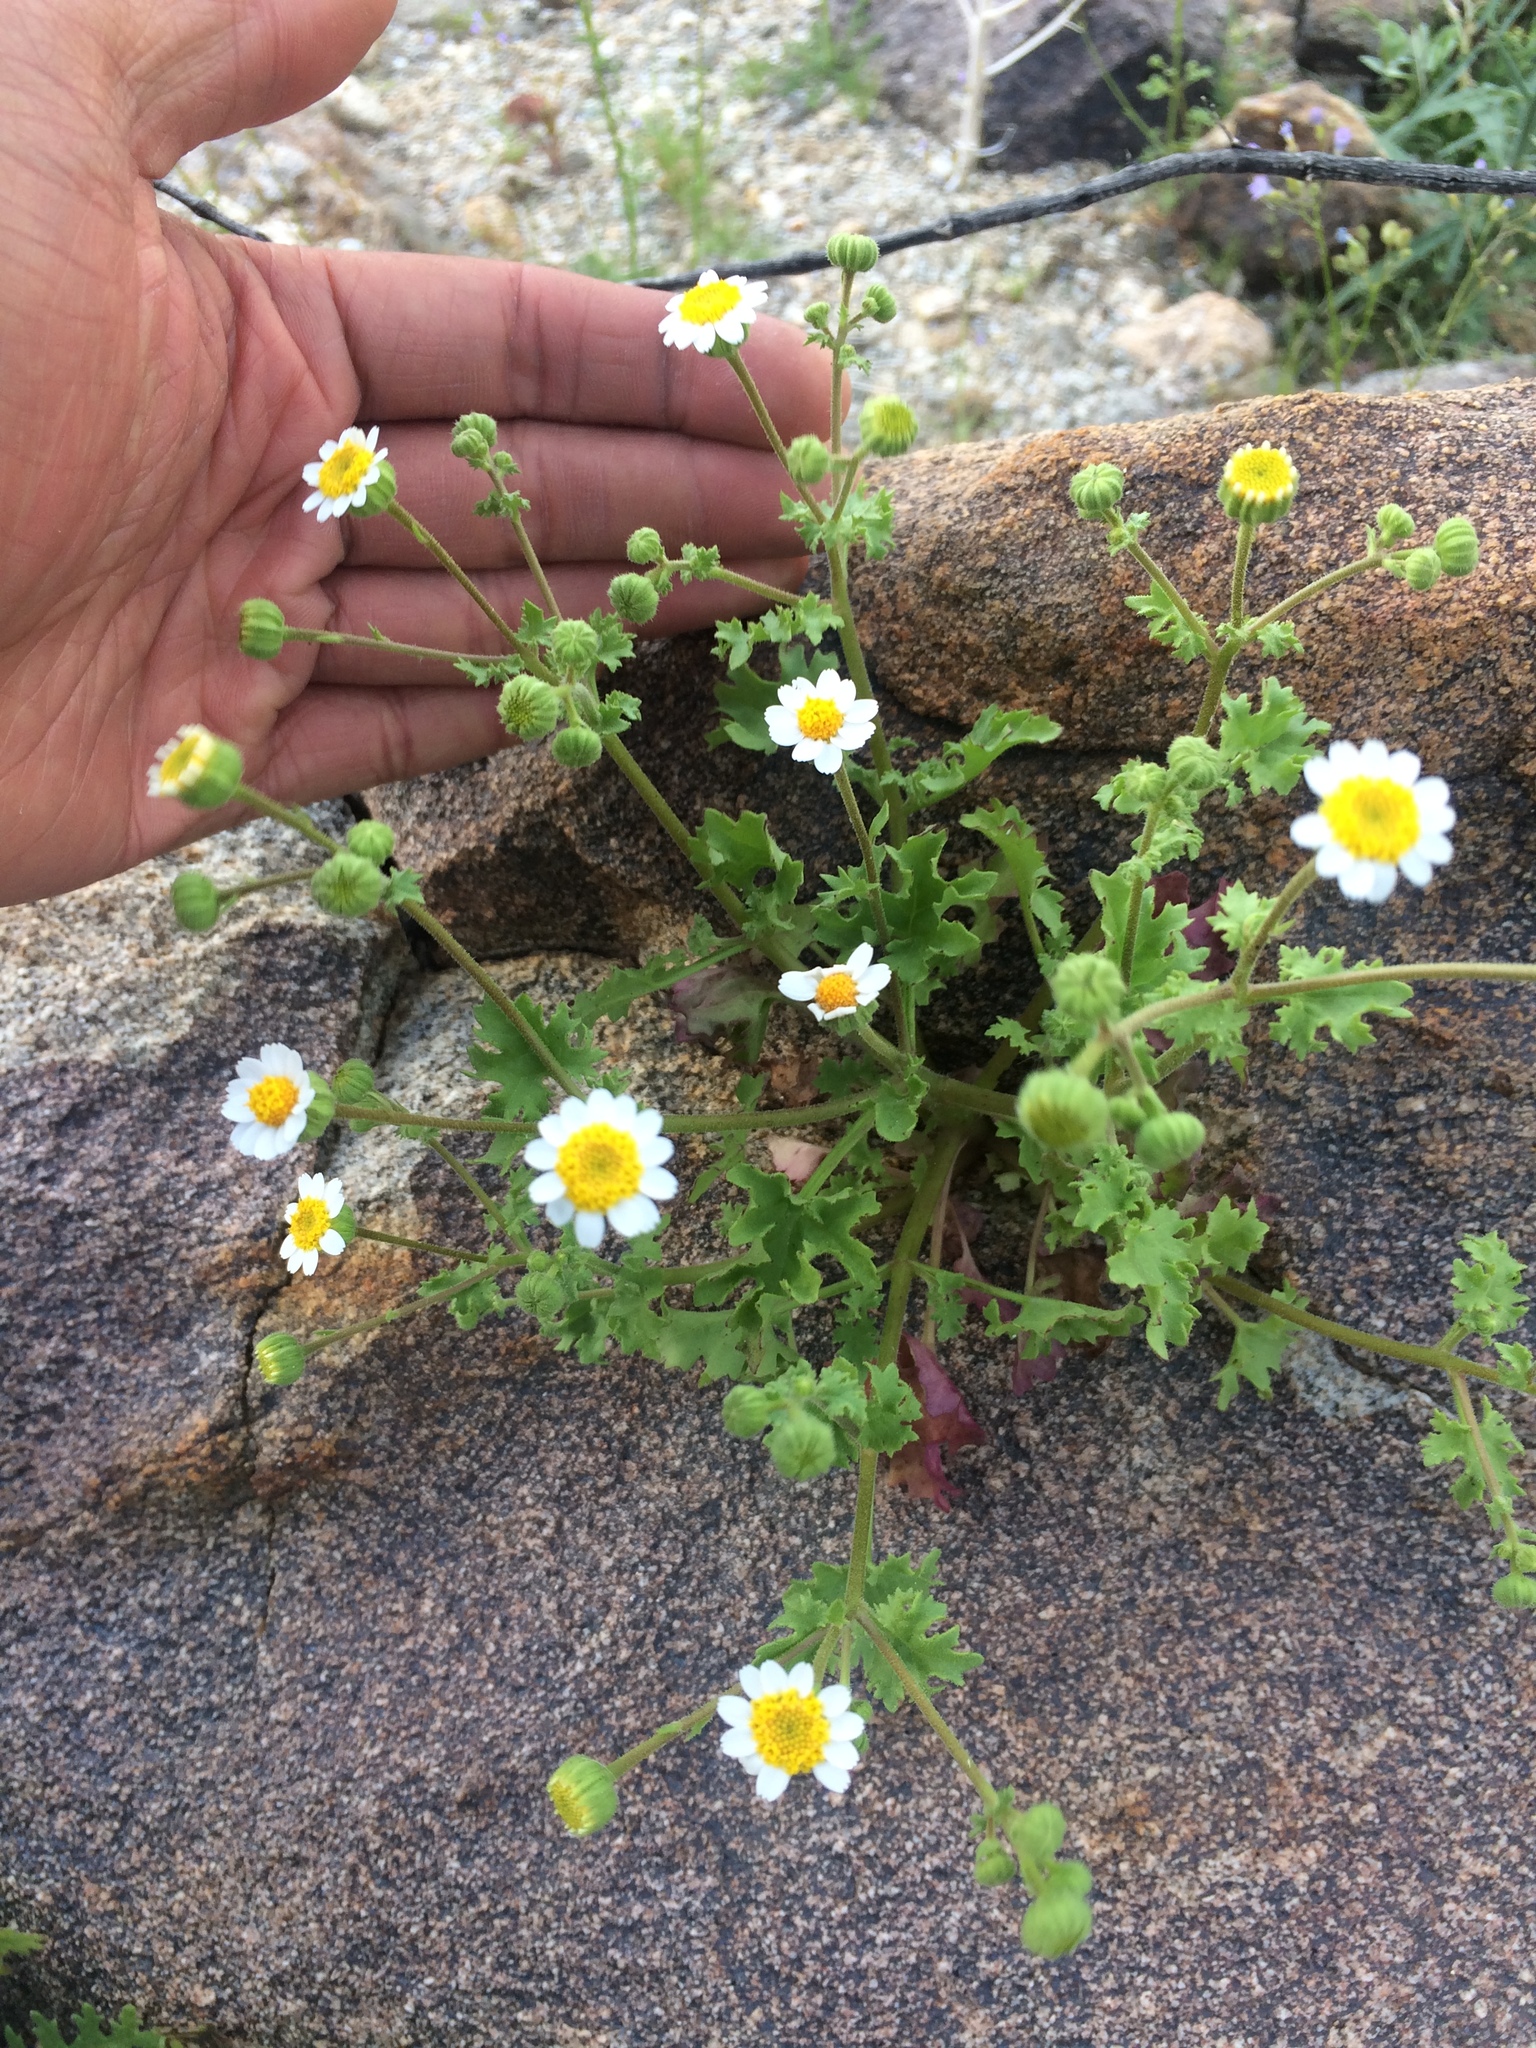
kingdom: Plantae
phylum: Tracheophyta
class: Magnoliopsida
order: Asterales
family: Asteraceae
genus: Laphamia
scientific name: Laphamia emoryi
